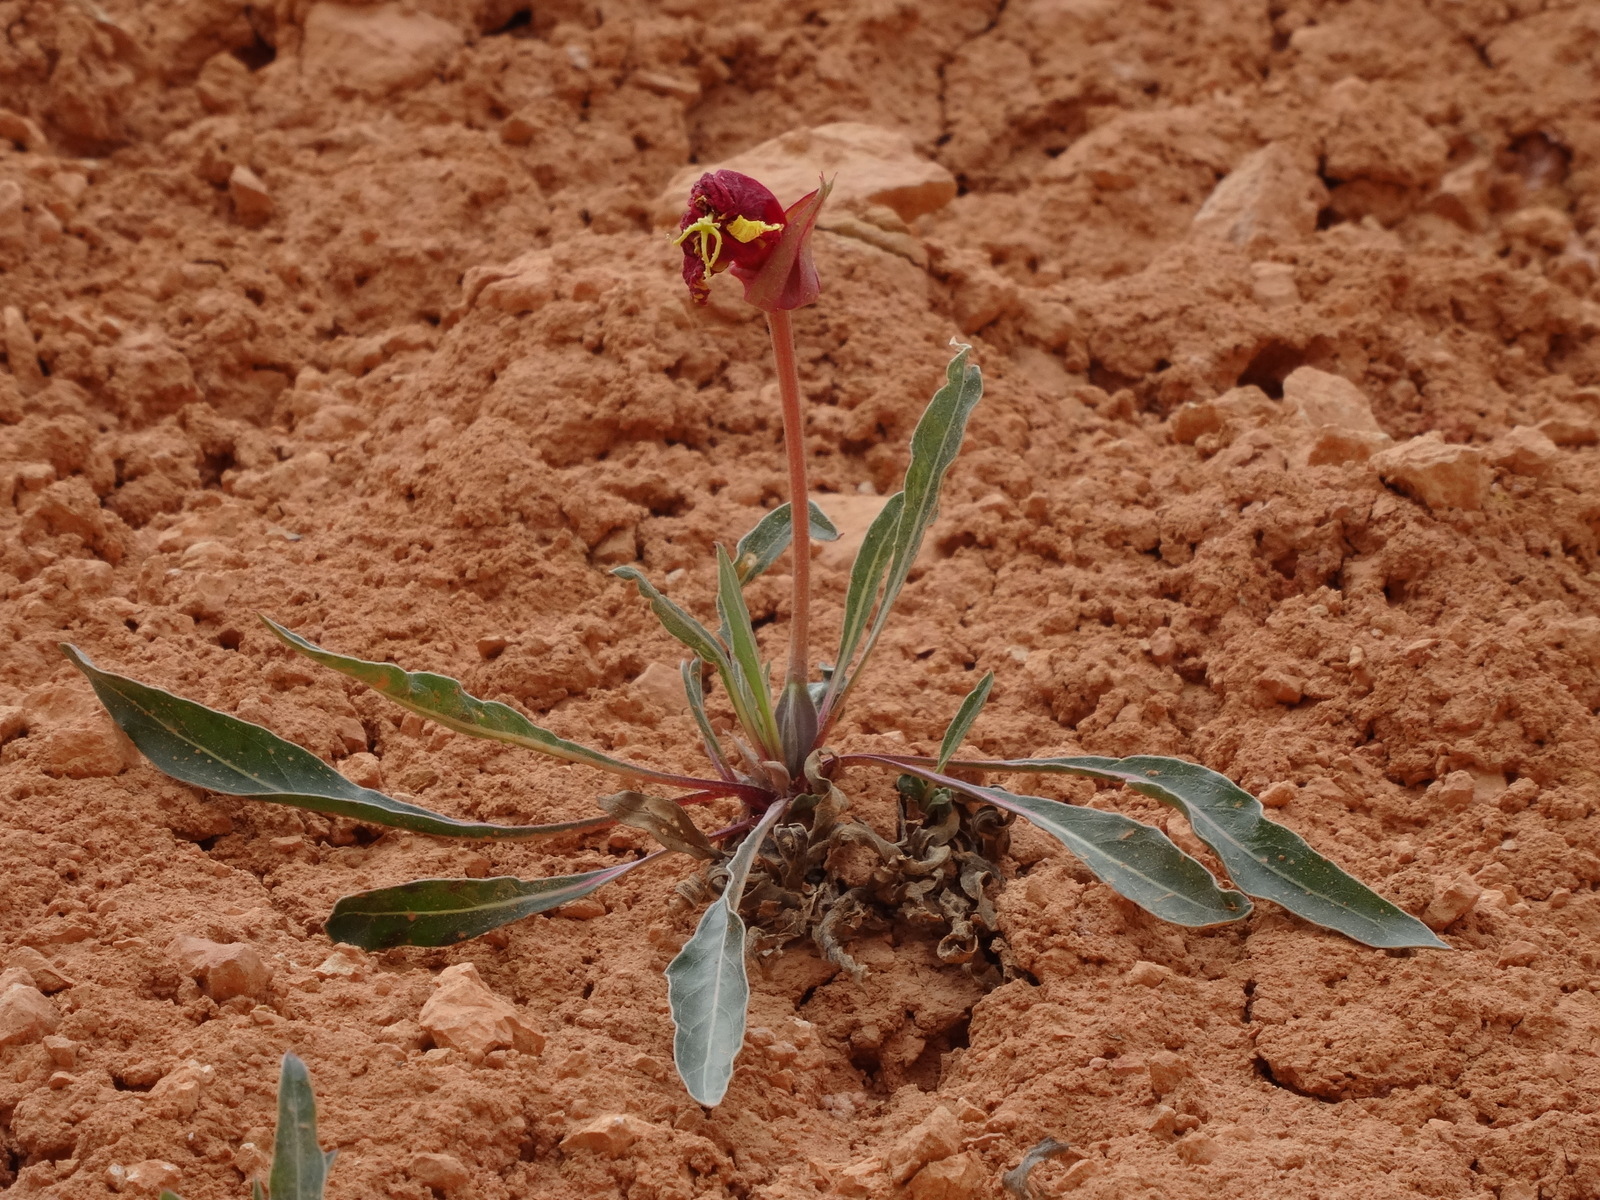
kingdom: Plantae
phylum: Tracheophyta
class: Magnoliopsida
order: Myrtales
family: Onagraceae
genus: Oenothera
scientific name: Oenothera howardii
